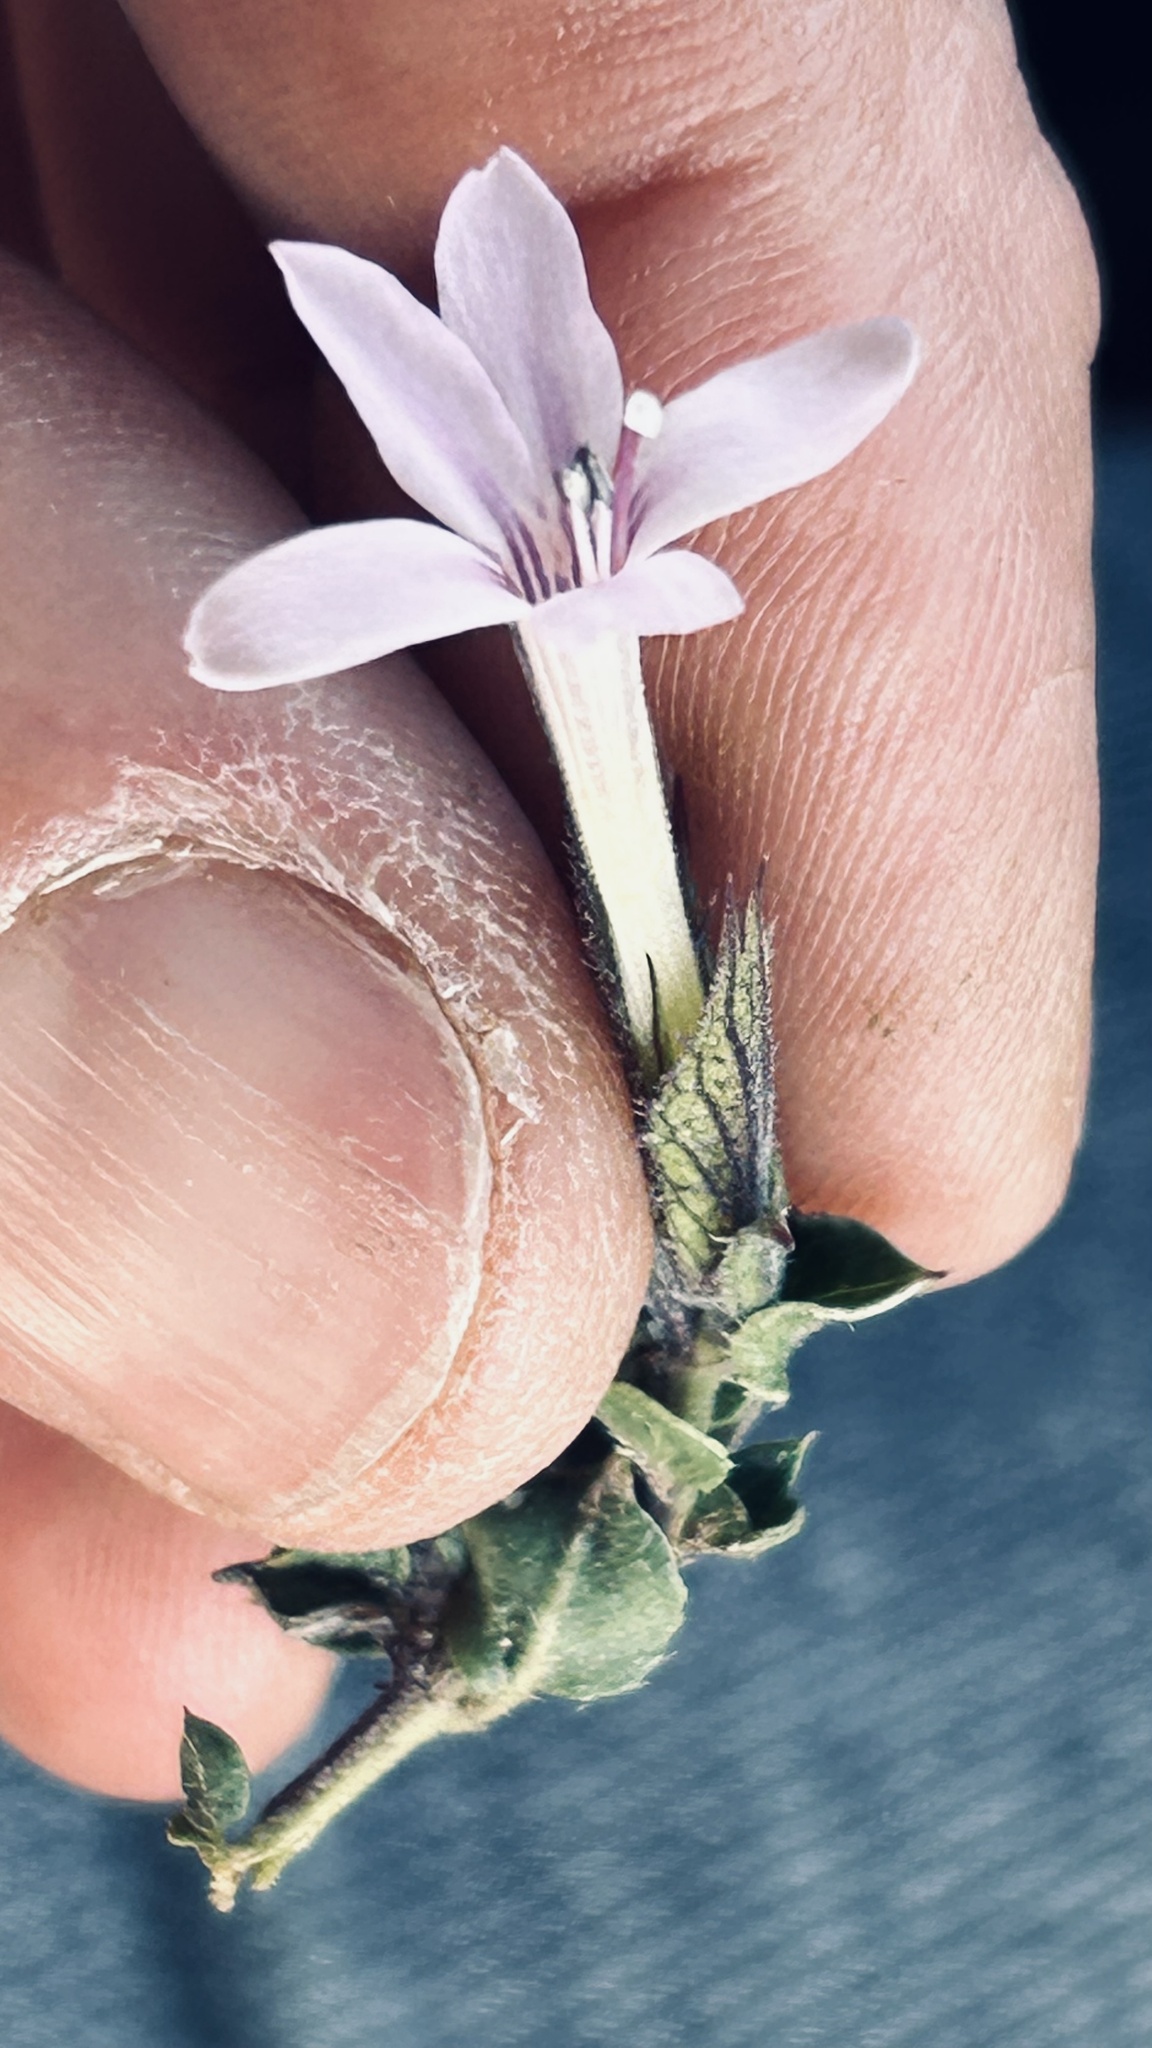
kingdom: Plantae
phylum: Tracheophyta
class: Magnoliopsida
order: Lamiales
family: Acanthaceae
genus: Barleria
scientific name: Barleria pungens
